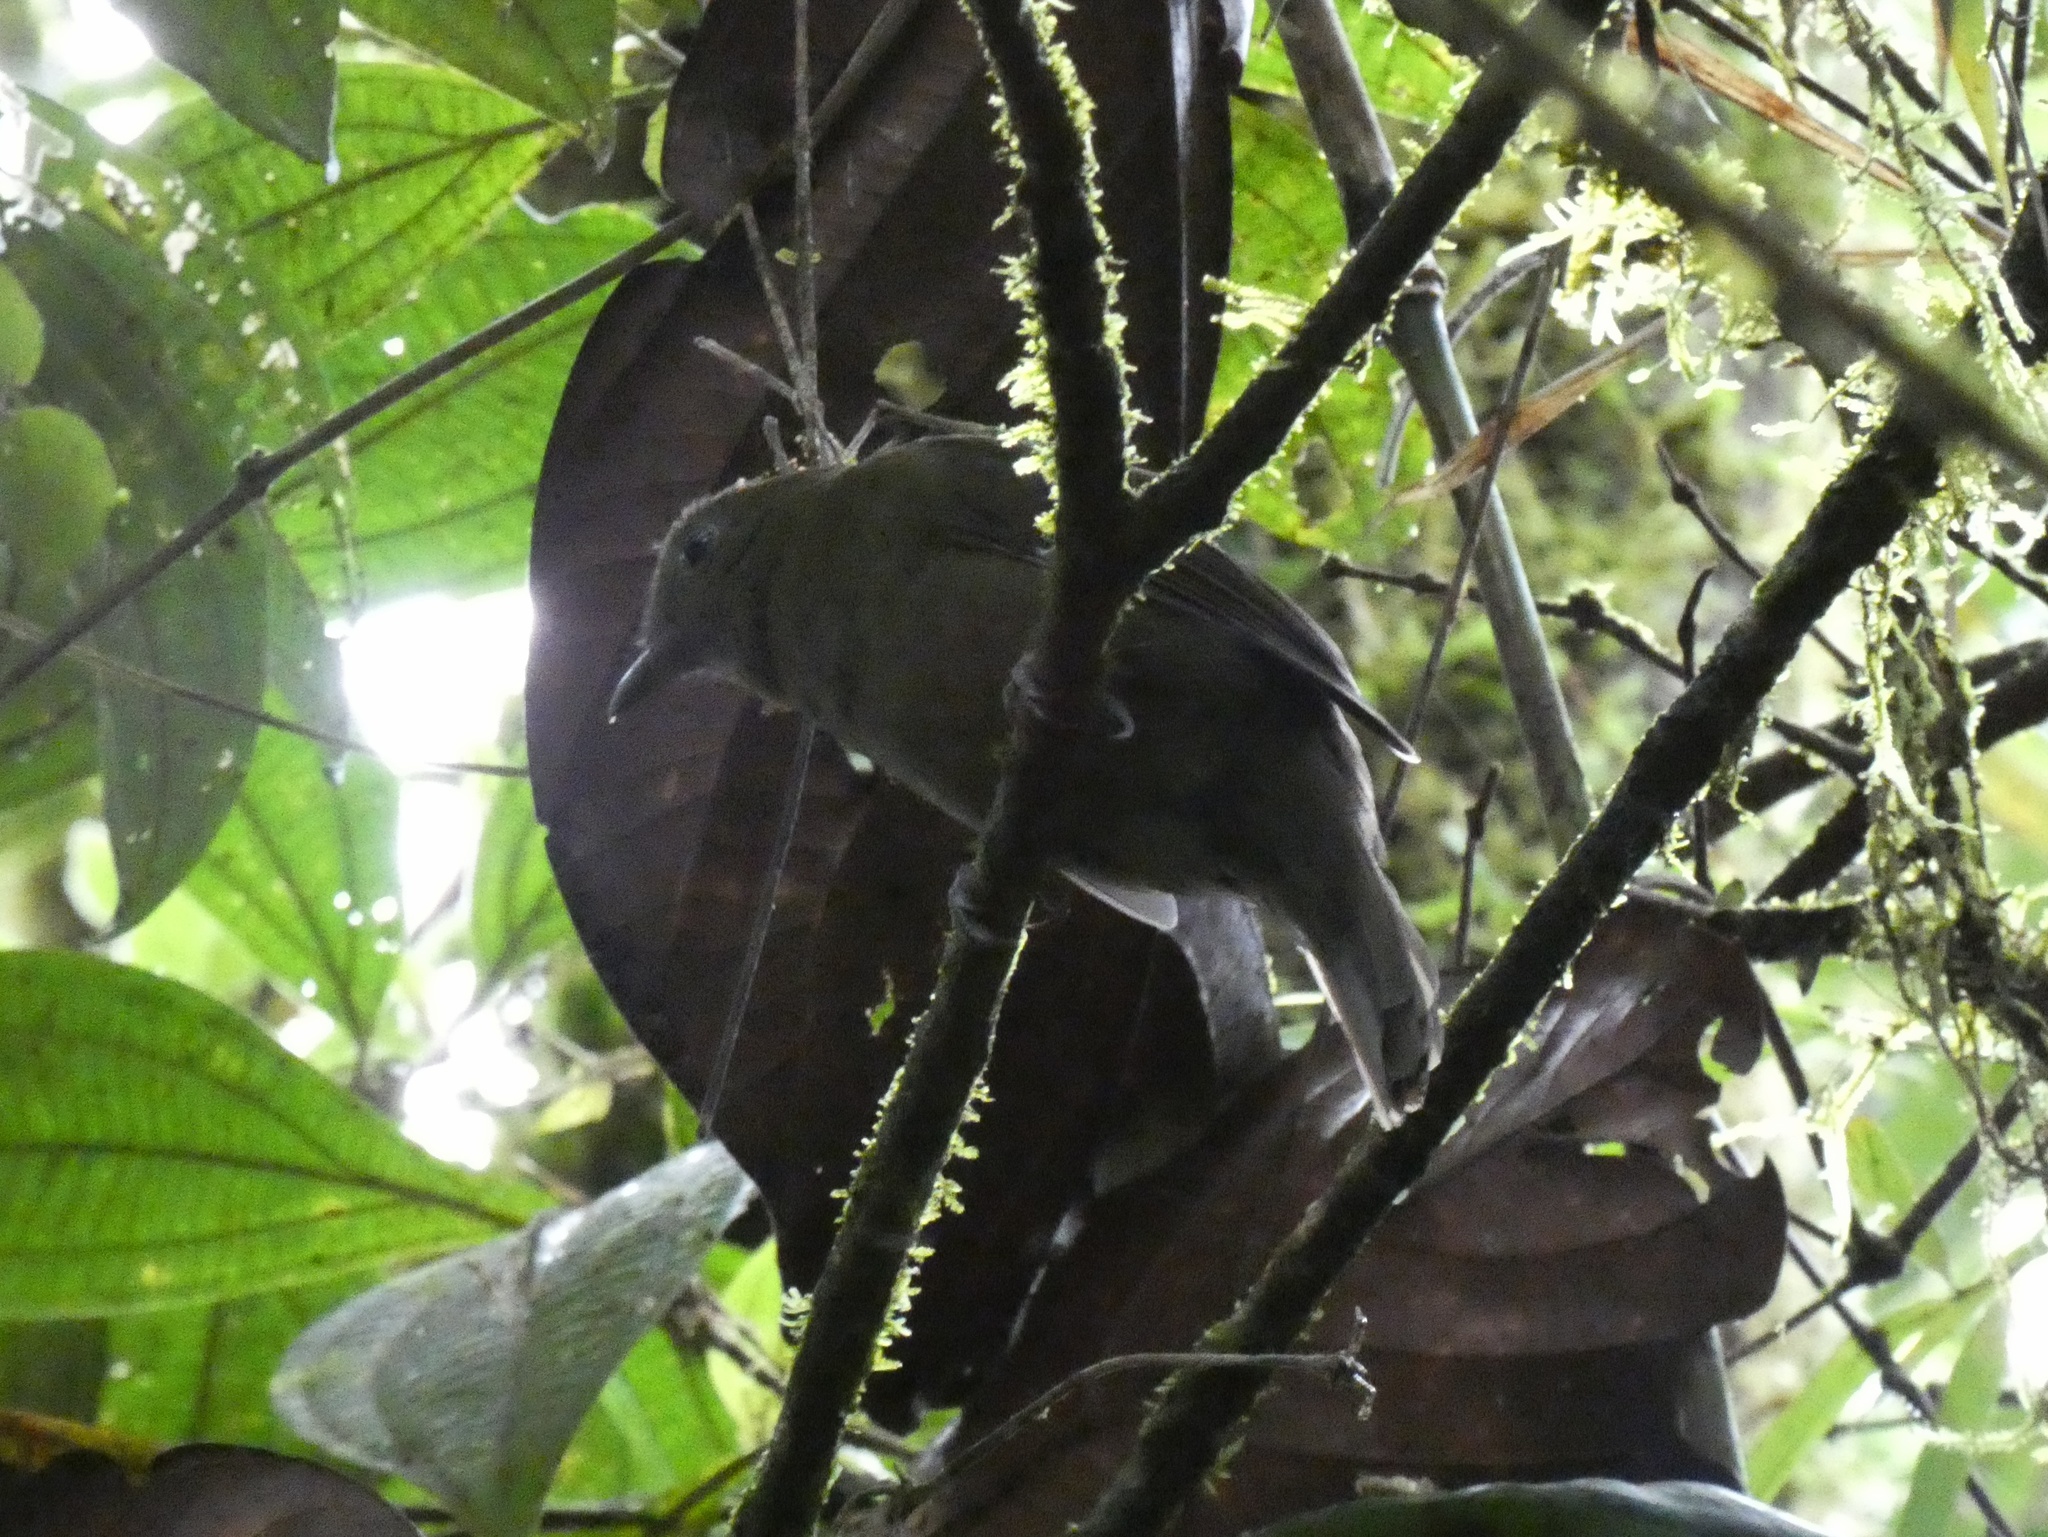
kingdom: Animalia
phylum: Chordata
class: Aves
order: Passeriformes
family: Cotingidae
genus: Schiffornis
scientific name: Schiffornis turdina
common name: Brown-winged schiffornis
